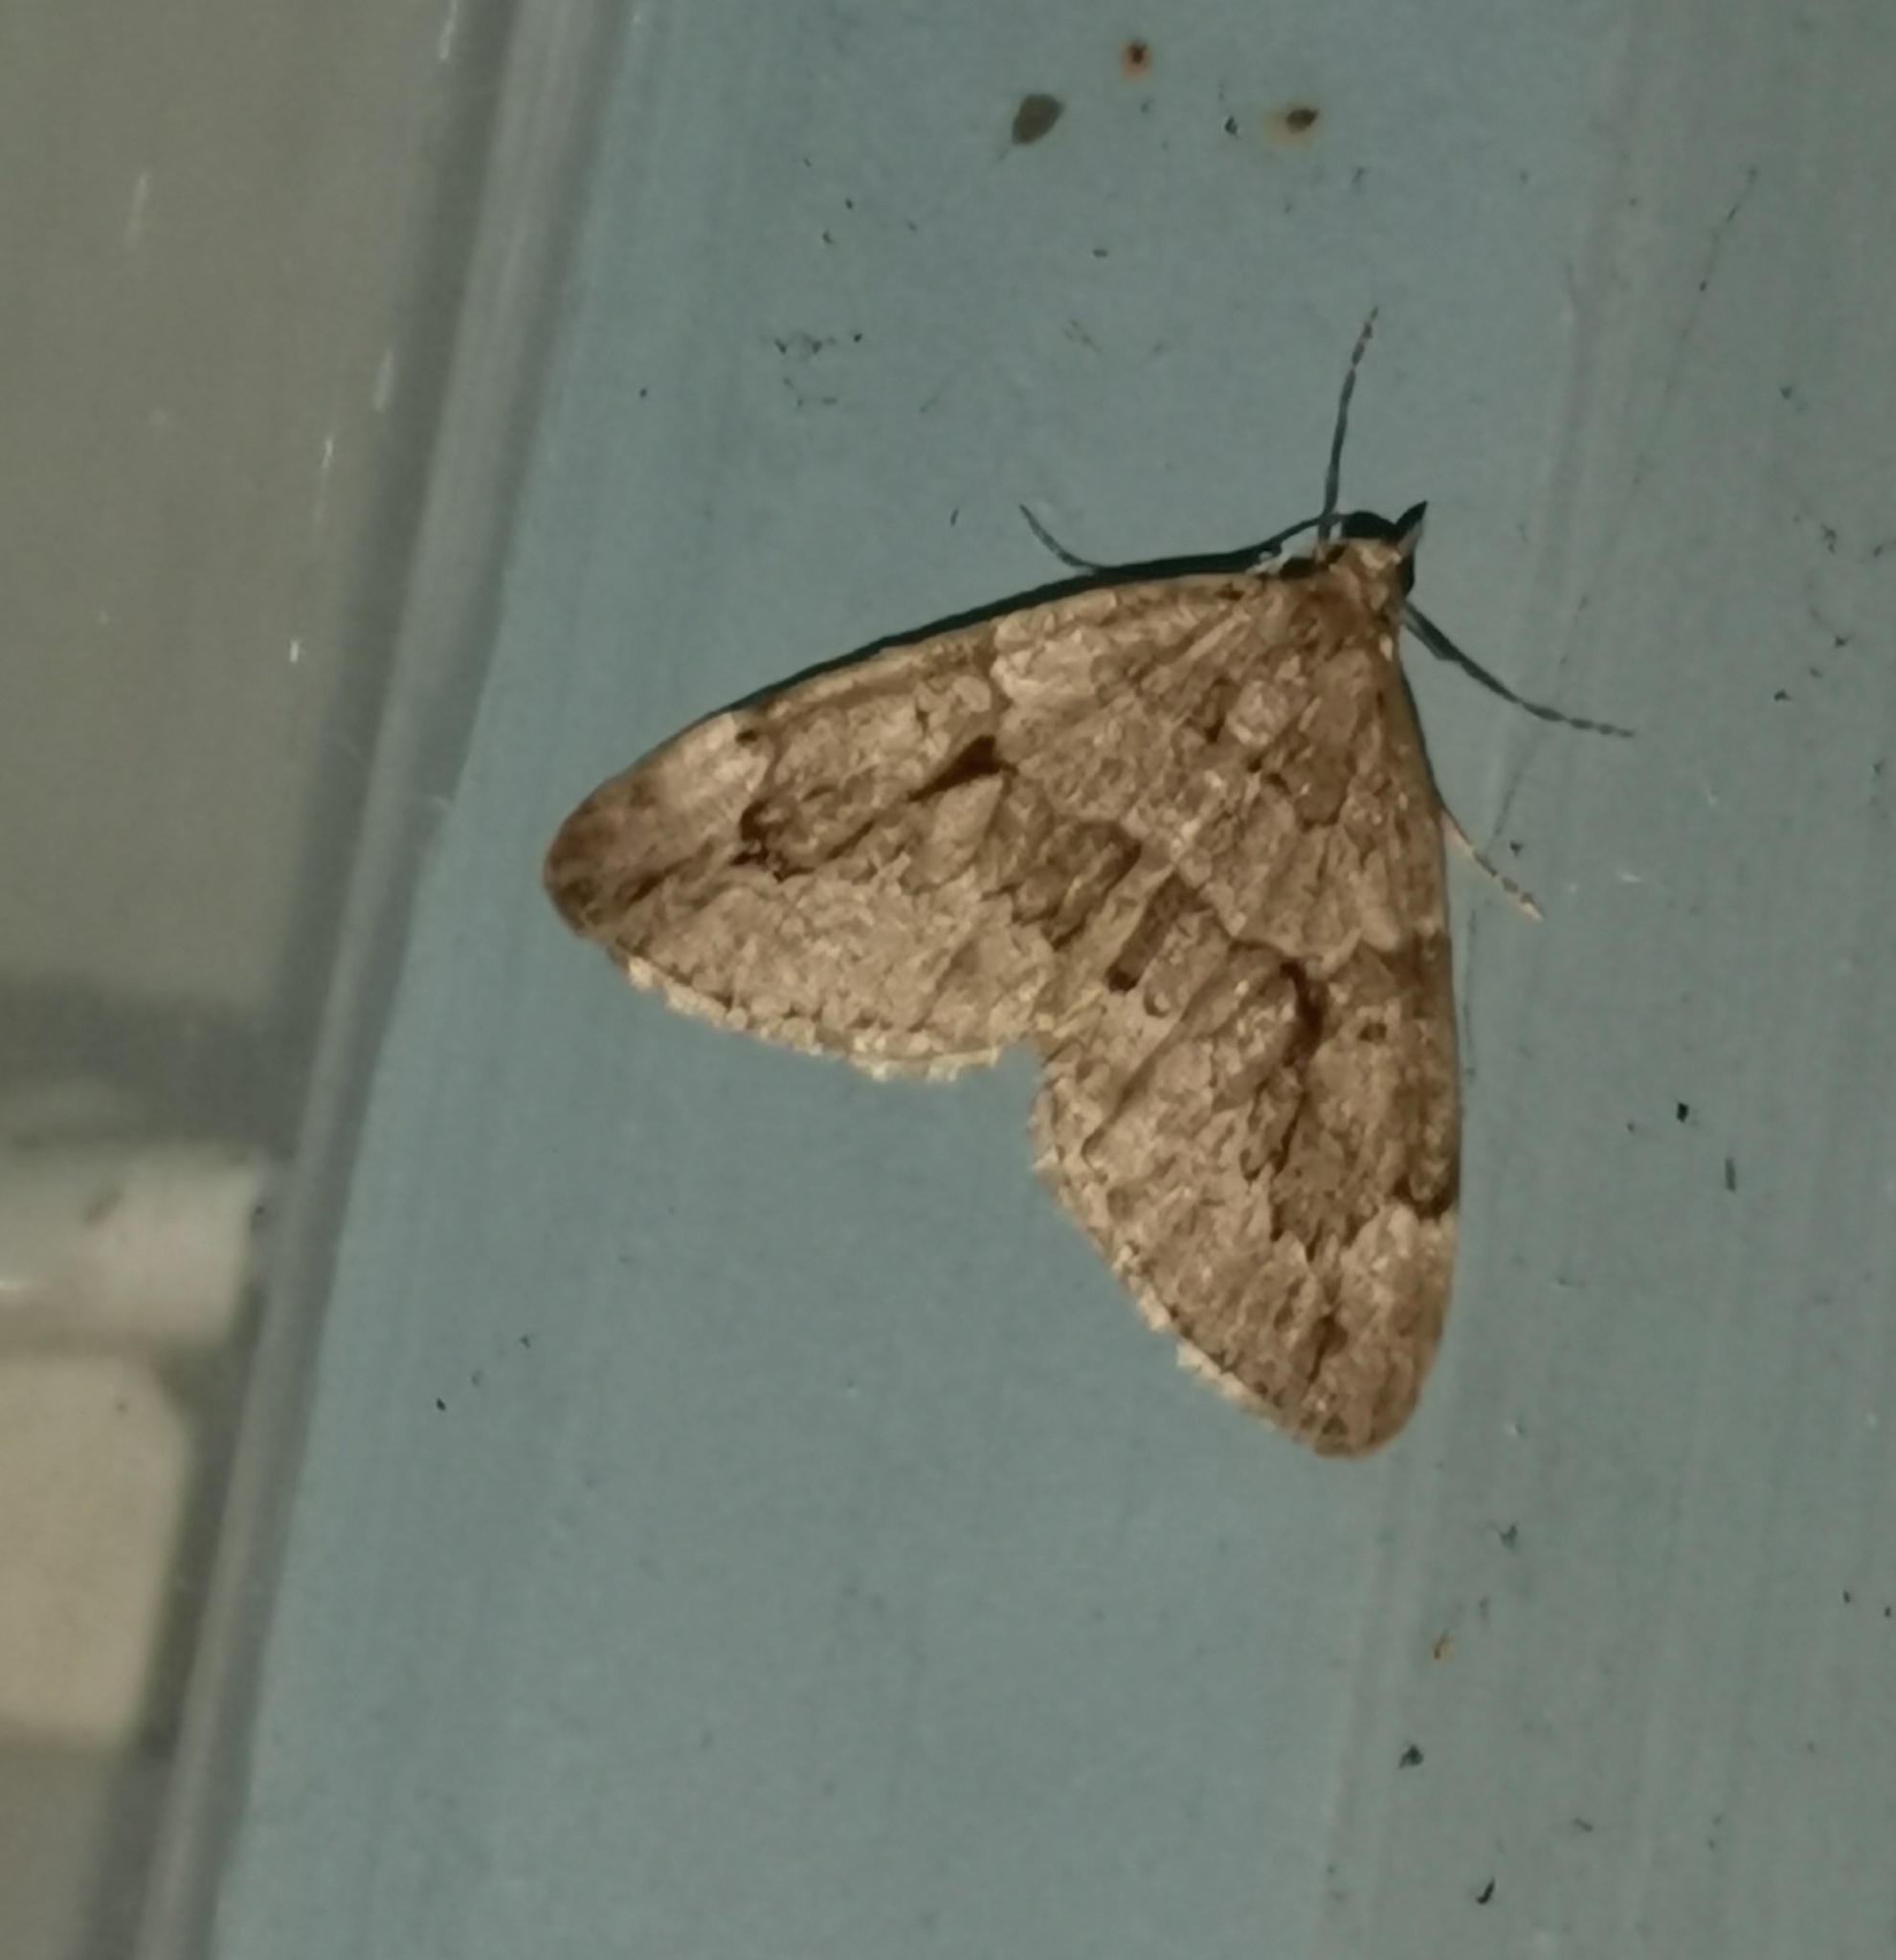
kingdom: Animalia
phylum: Arthropoda
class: Insecta
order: Lepidoptera
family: Geometridae
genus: Thera
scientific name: Thera juniperata
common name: Juniper carpet
